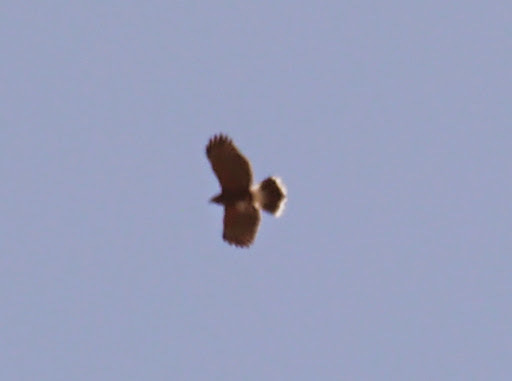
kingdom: Animalia
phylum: Chordata
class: Aves
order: Accipitriformes
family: Accipitridae
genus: Parabuteo
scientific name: Parabuteo unicinctus
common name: Harris's hawk
